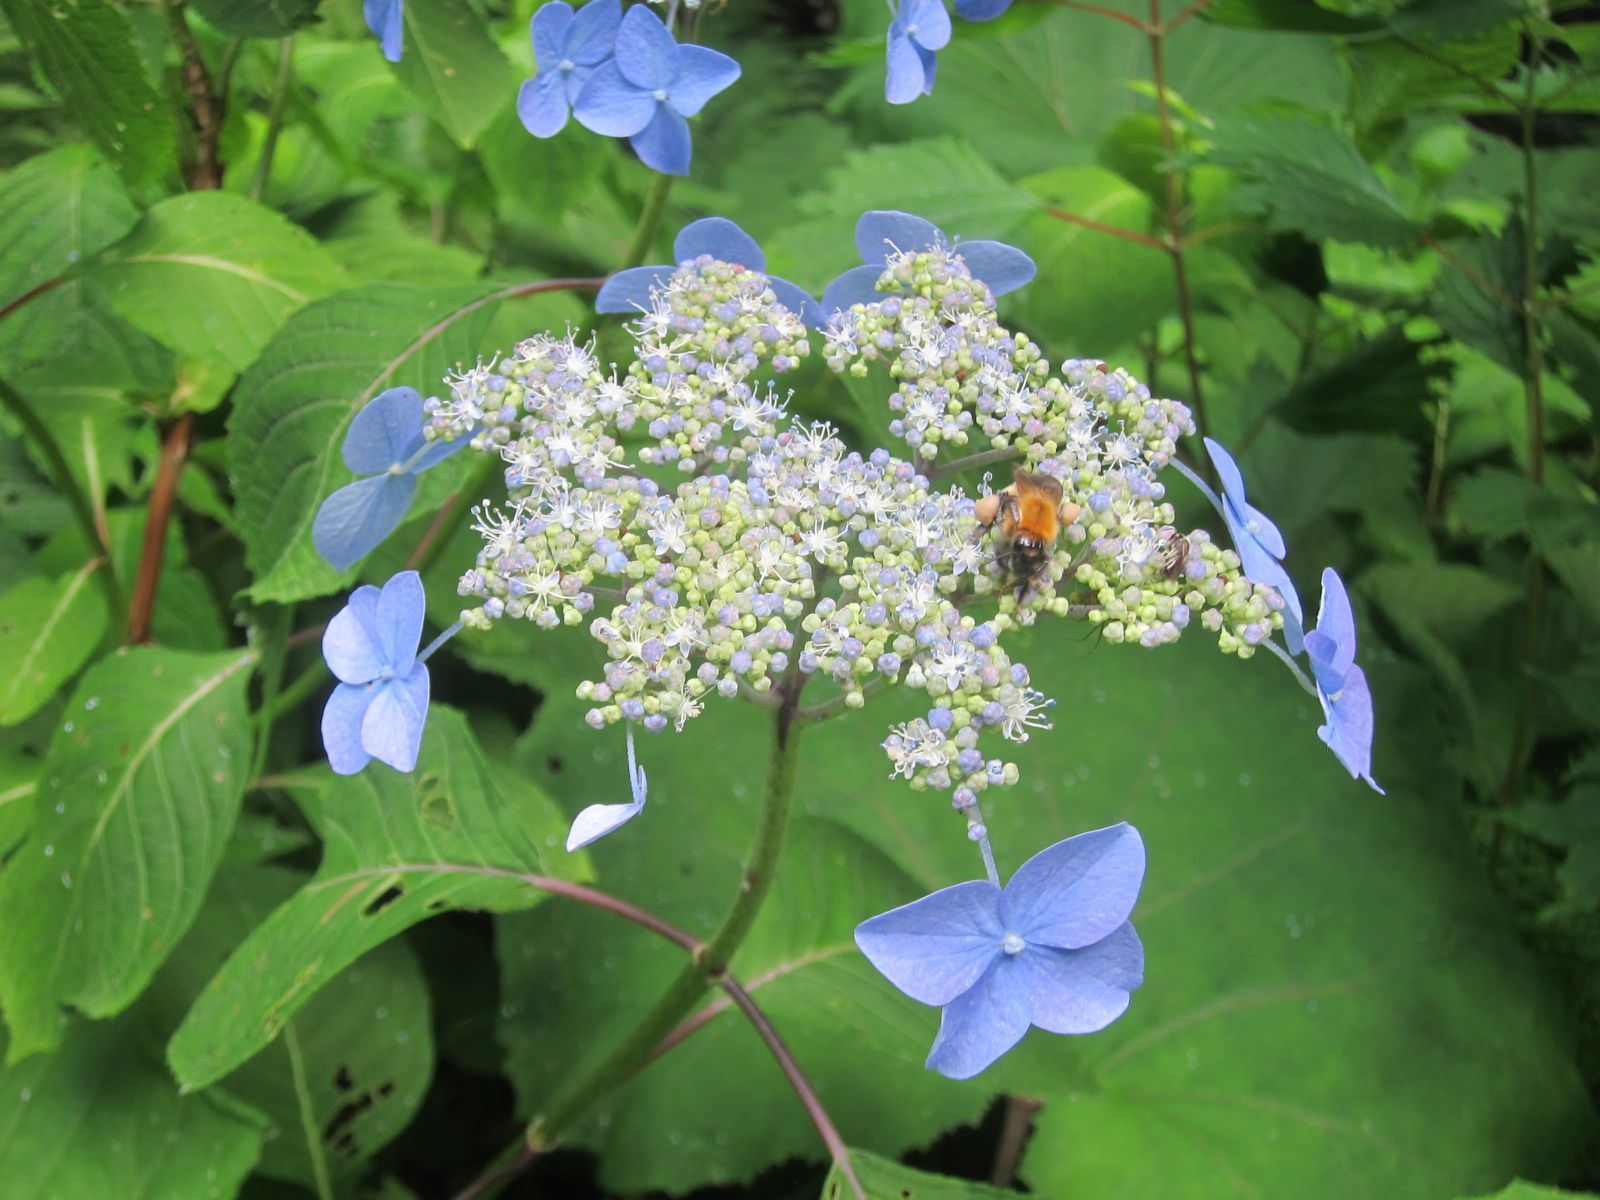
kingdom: Plantae
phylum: Tracheophyta
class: Magnoliopsida
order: Cornales
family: Hydrangeaceae
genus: Hydrangea
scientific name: Hydrangea serrata
